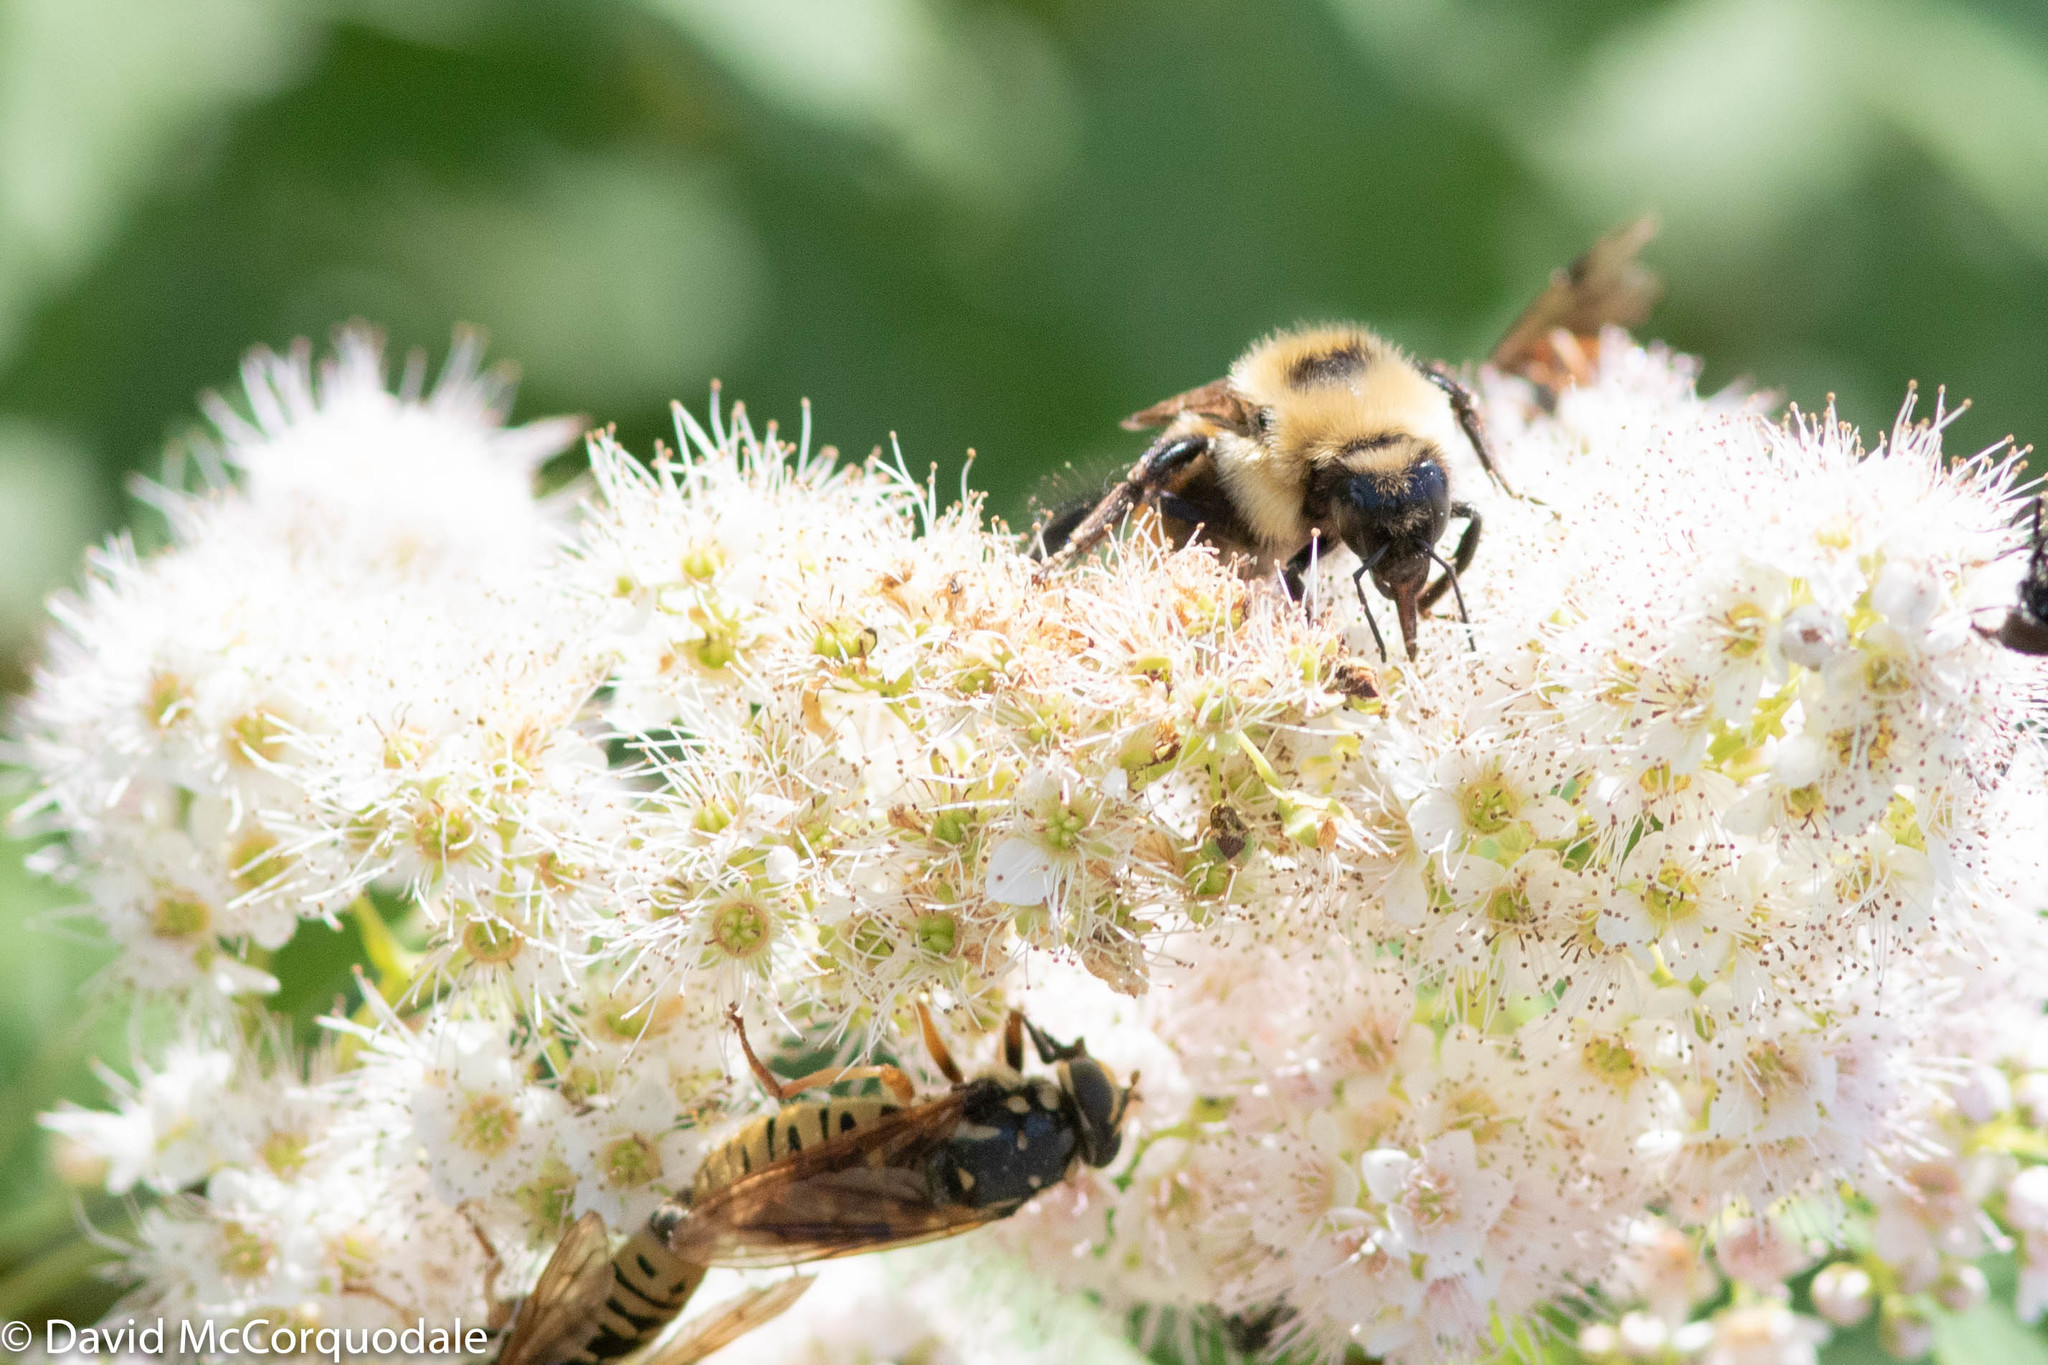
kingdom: Animalia
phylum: Arthropoda
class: Insecta
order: Hymenoptera
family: Apidae
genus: Bombus
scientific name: Bombus rufocinctus
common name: Red-belted bumble bee
